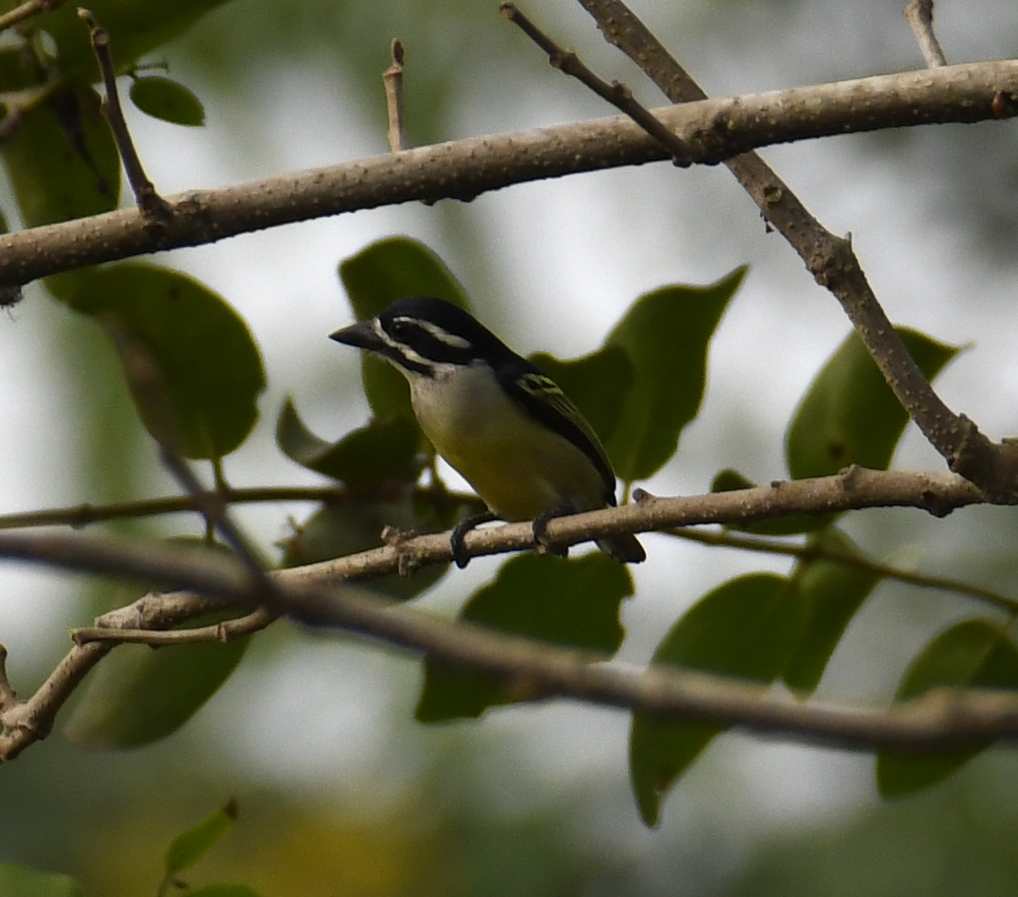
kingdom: Animalia
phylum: Chordata
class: Aves
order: Piciformes
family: Lybiidae
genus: Pogoniulus
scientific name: Pogoniulus bilineatus
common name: Yellow-rumped tinkerbird
